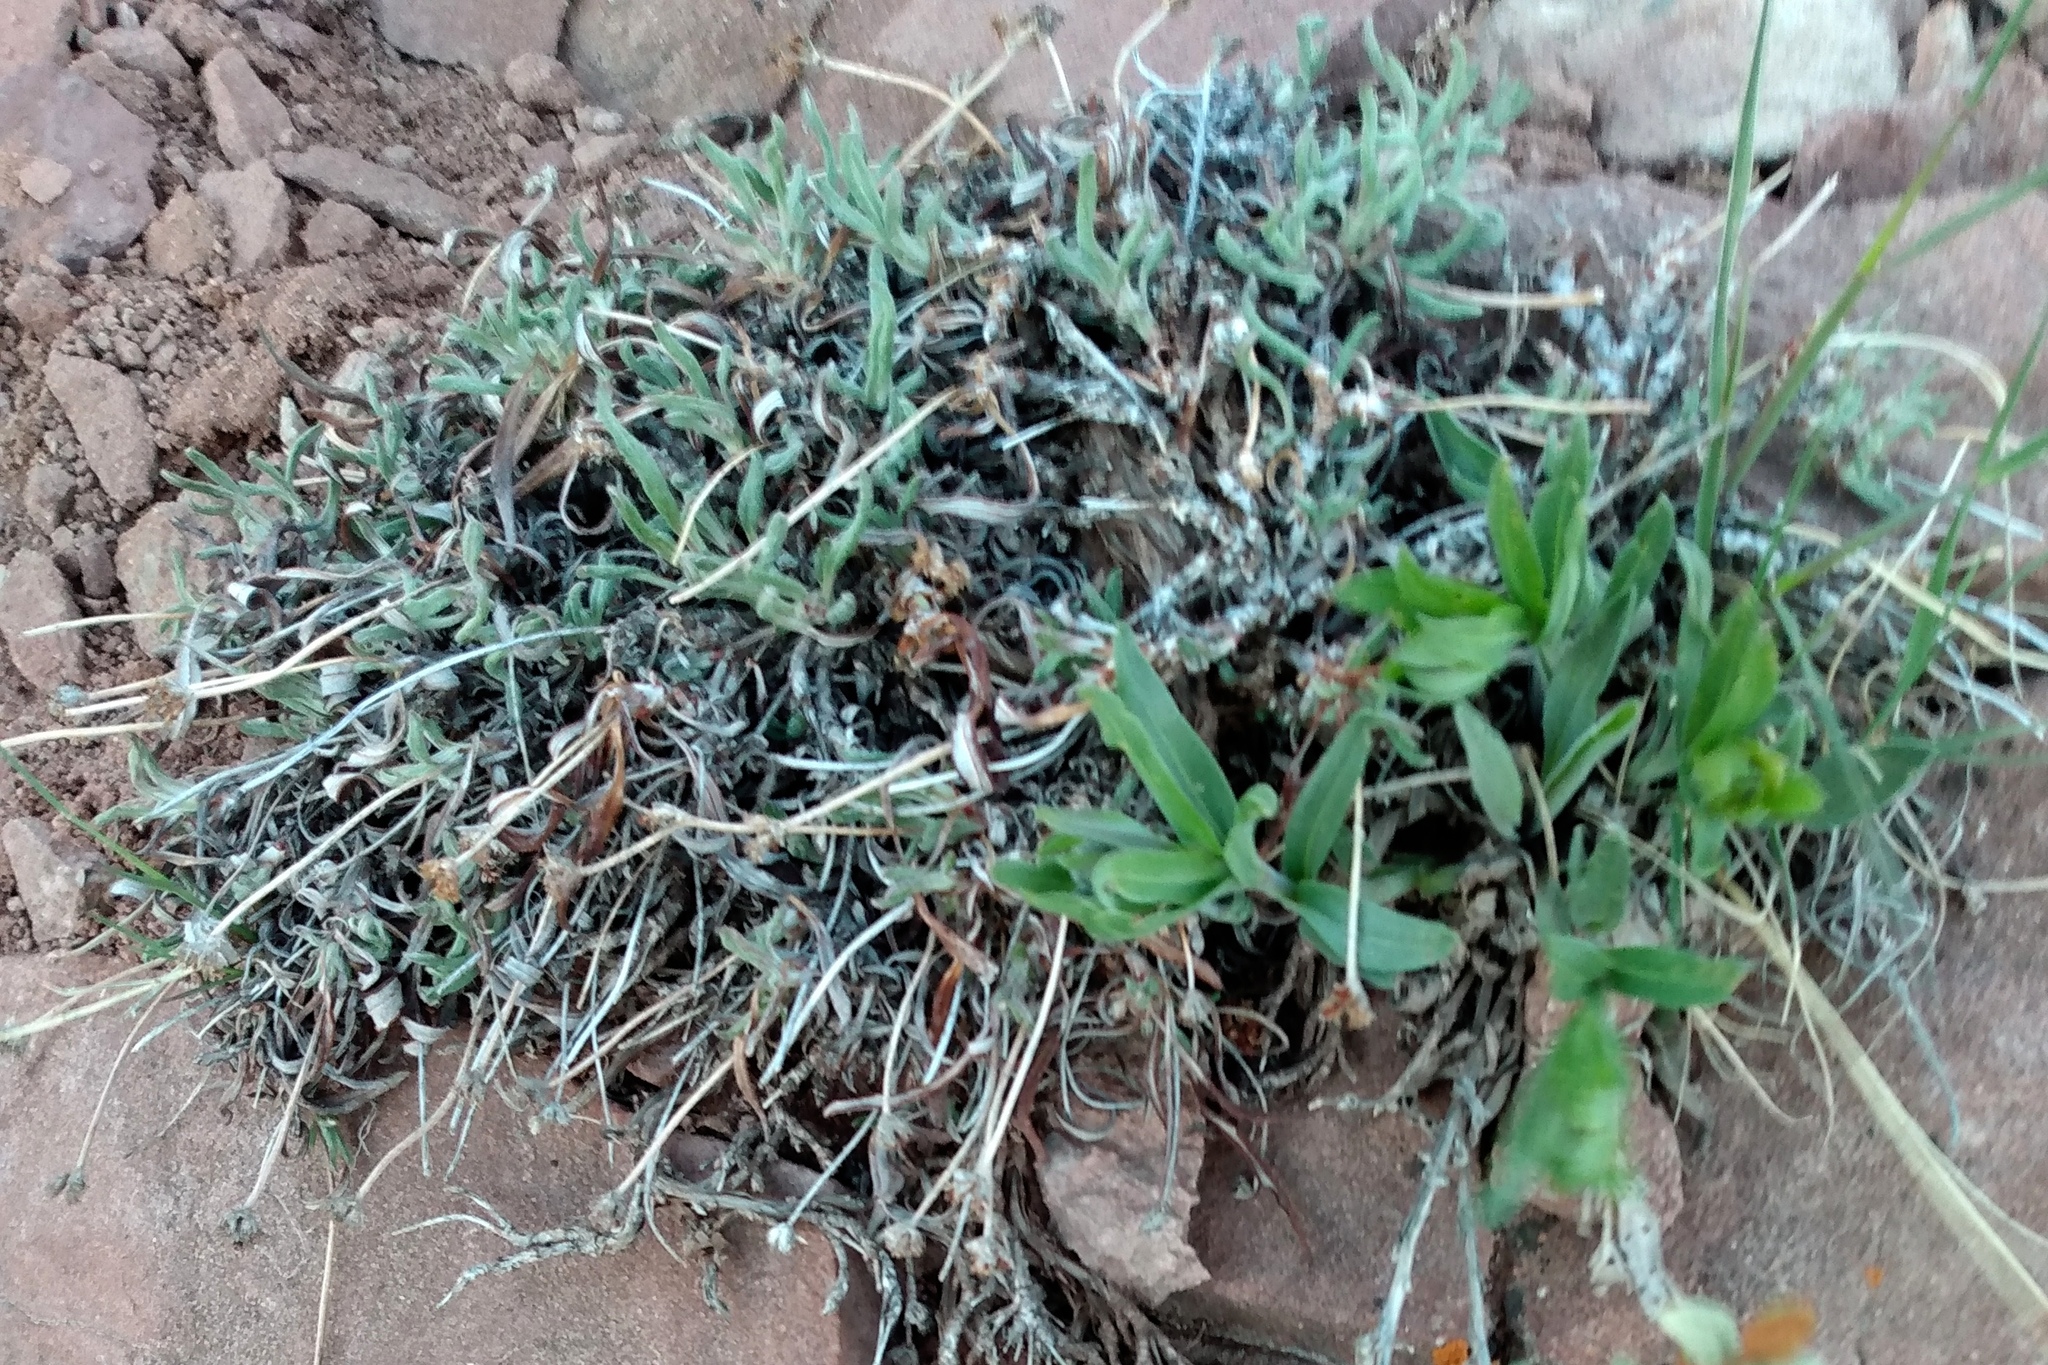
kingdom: Plantae
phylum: Tracheophyta
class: Magnoliopsida
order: Caryophyllales
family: Polygonaceae
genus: Eriogonum
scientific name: Eriogonum coloradense
